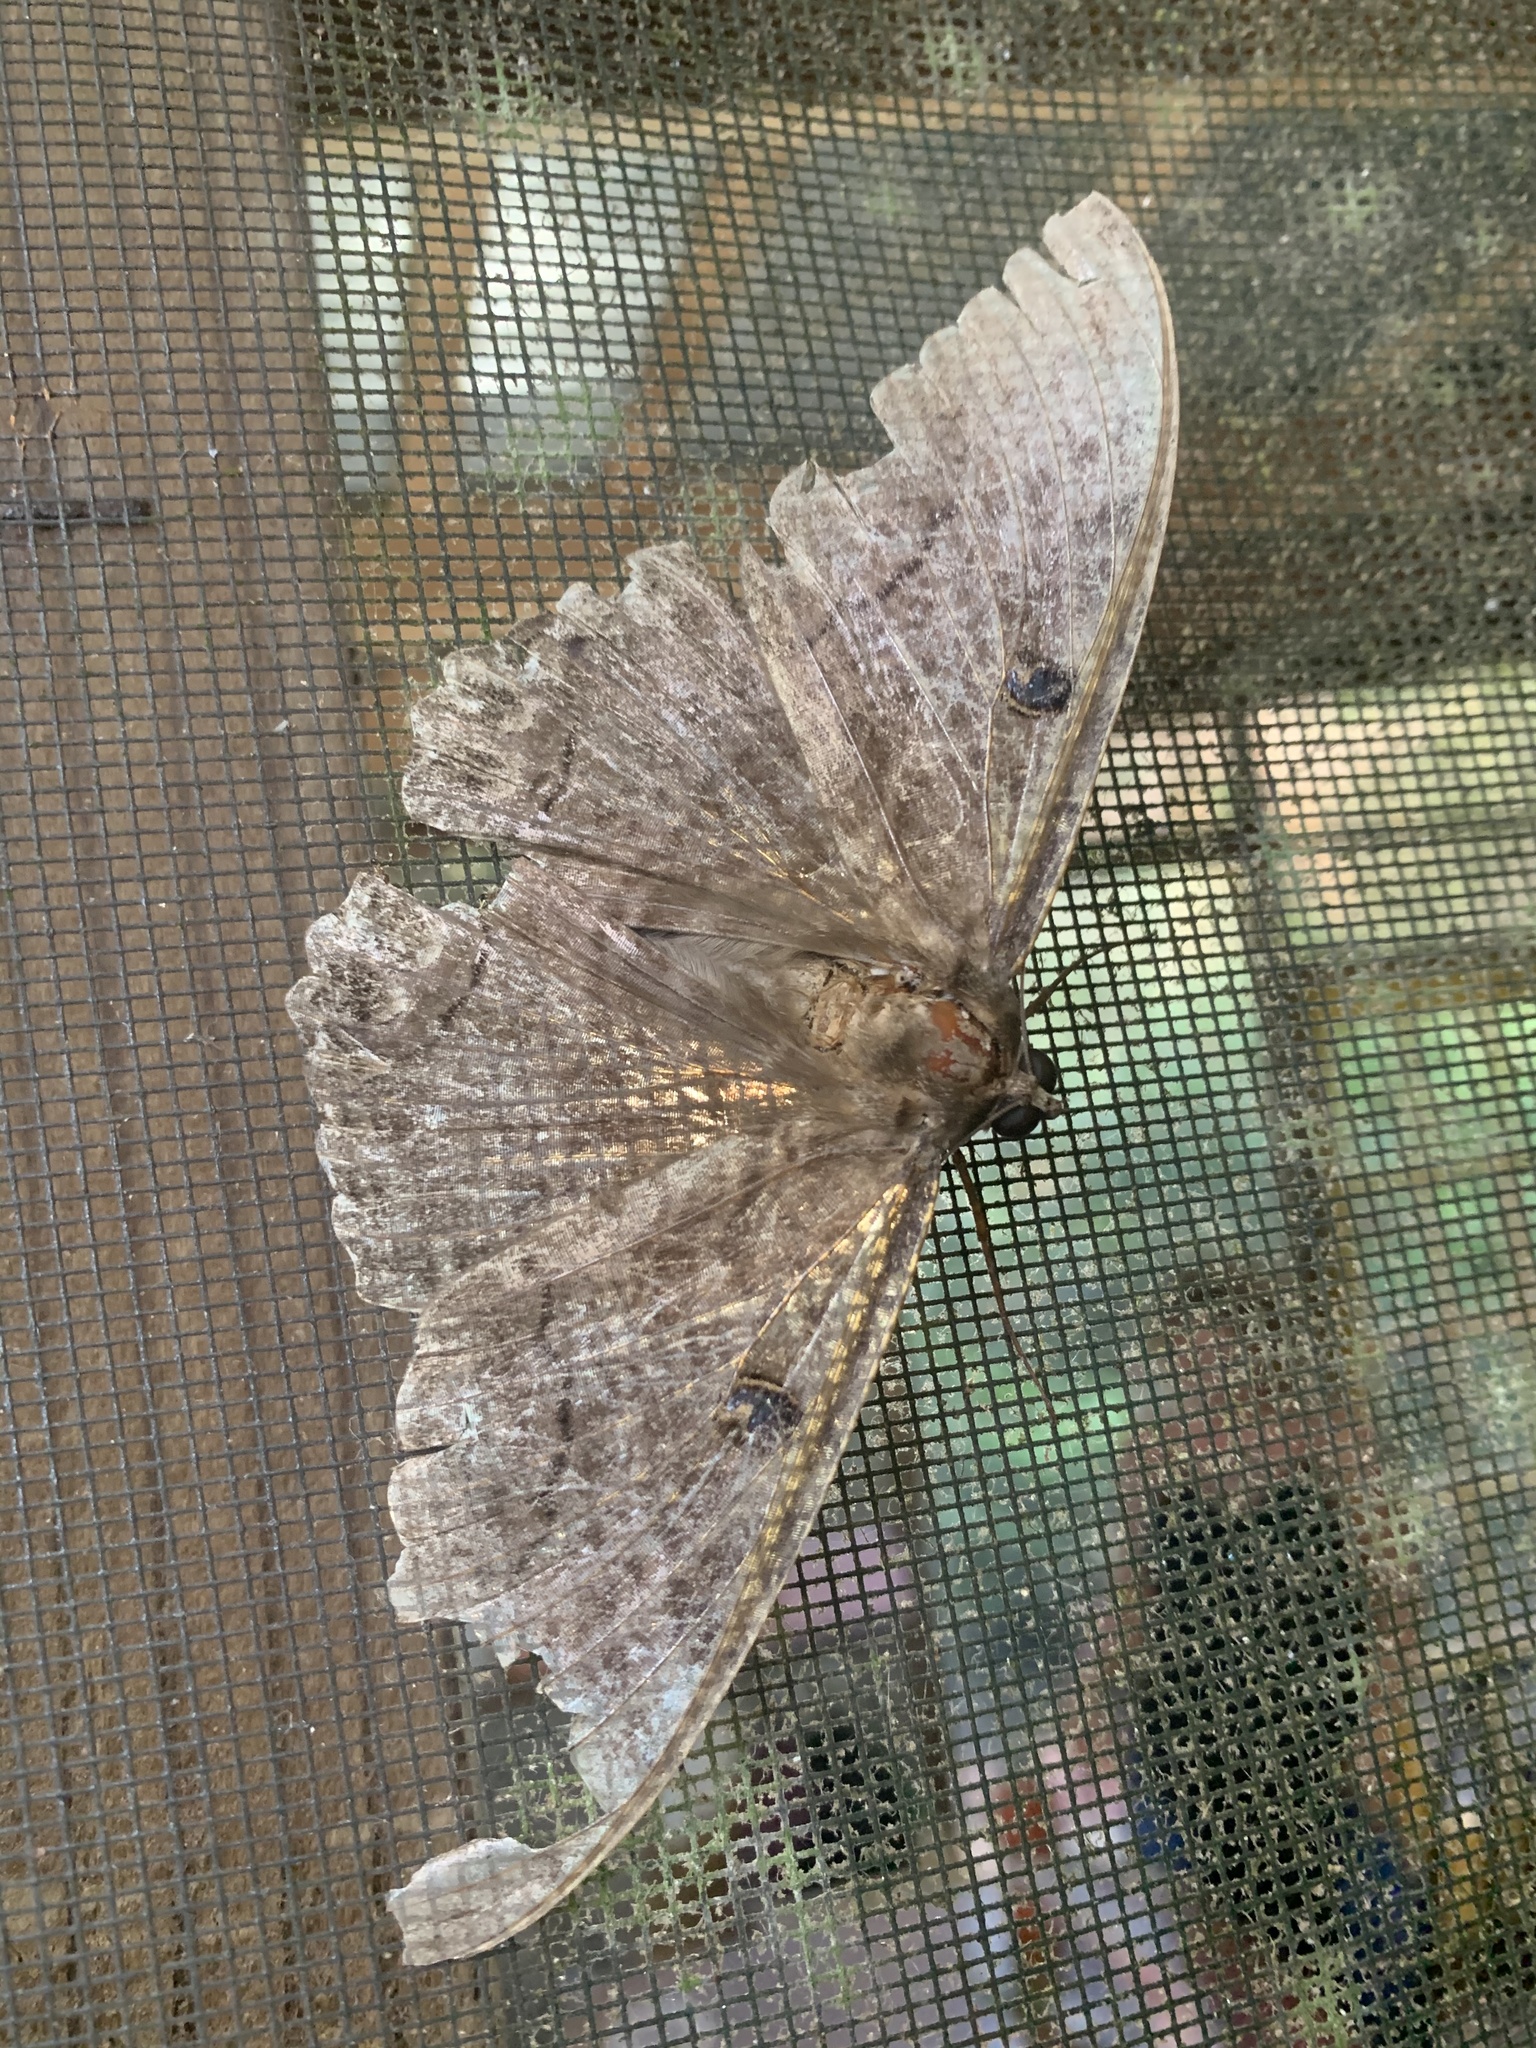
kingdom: Animalia
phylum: Arthropoda
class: Insecta
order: Lepidoptera
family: Erebidae
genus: Ascalapha
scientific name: Ascalapha odorata
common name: Black witch
